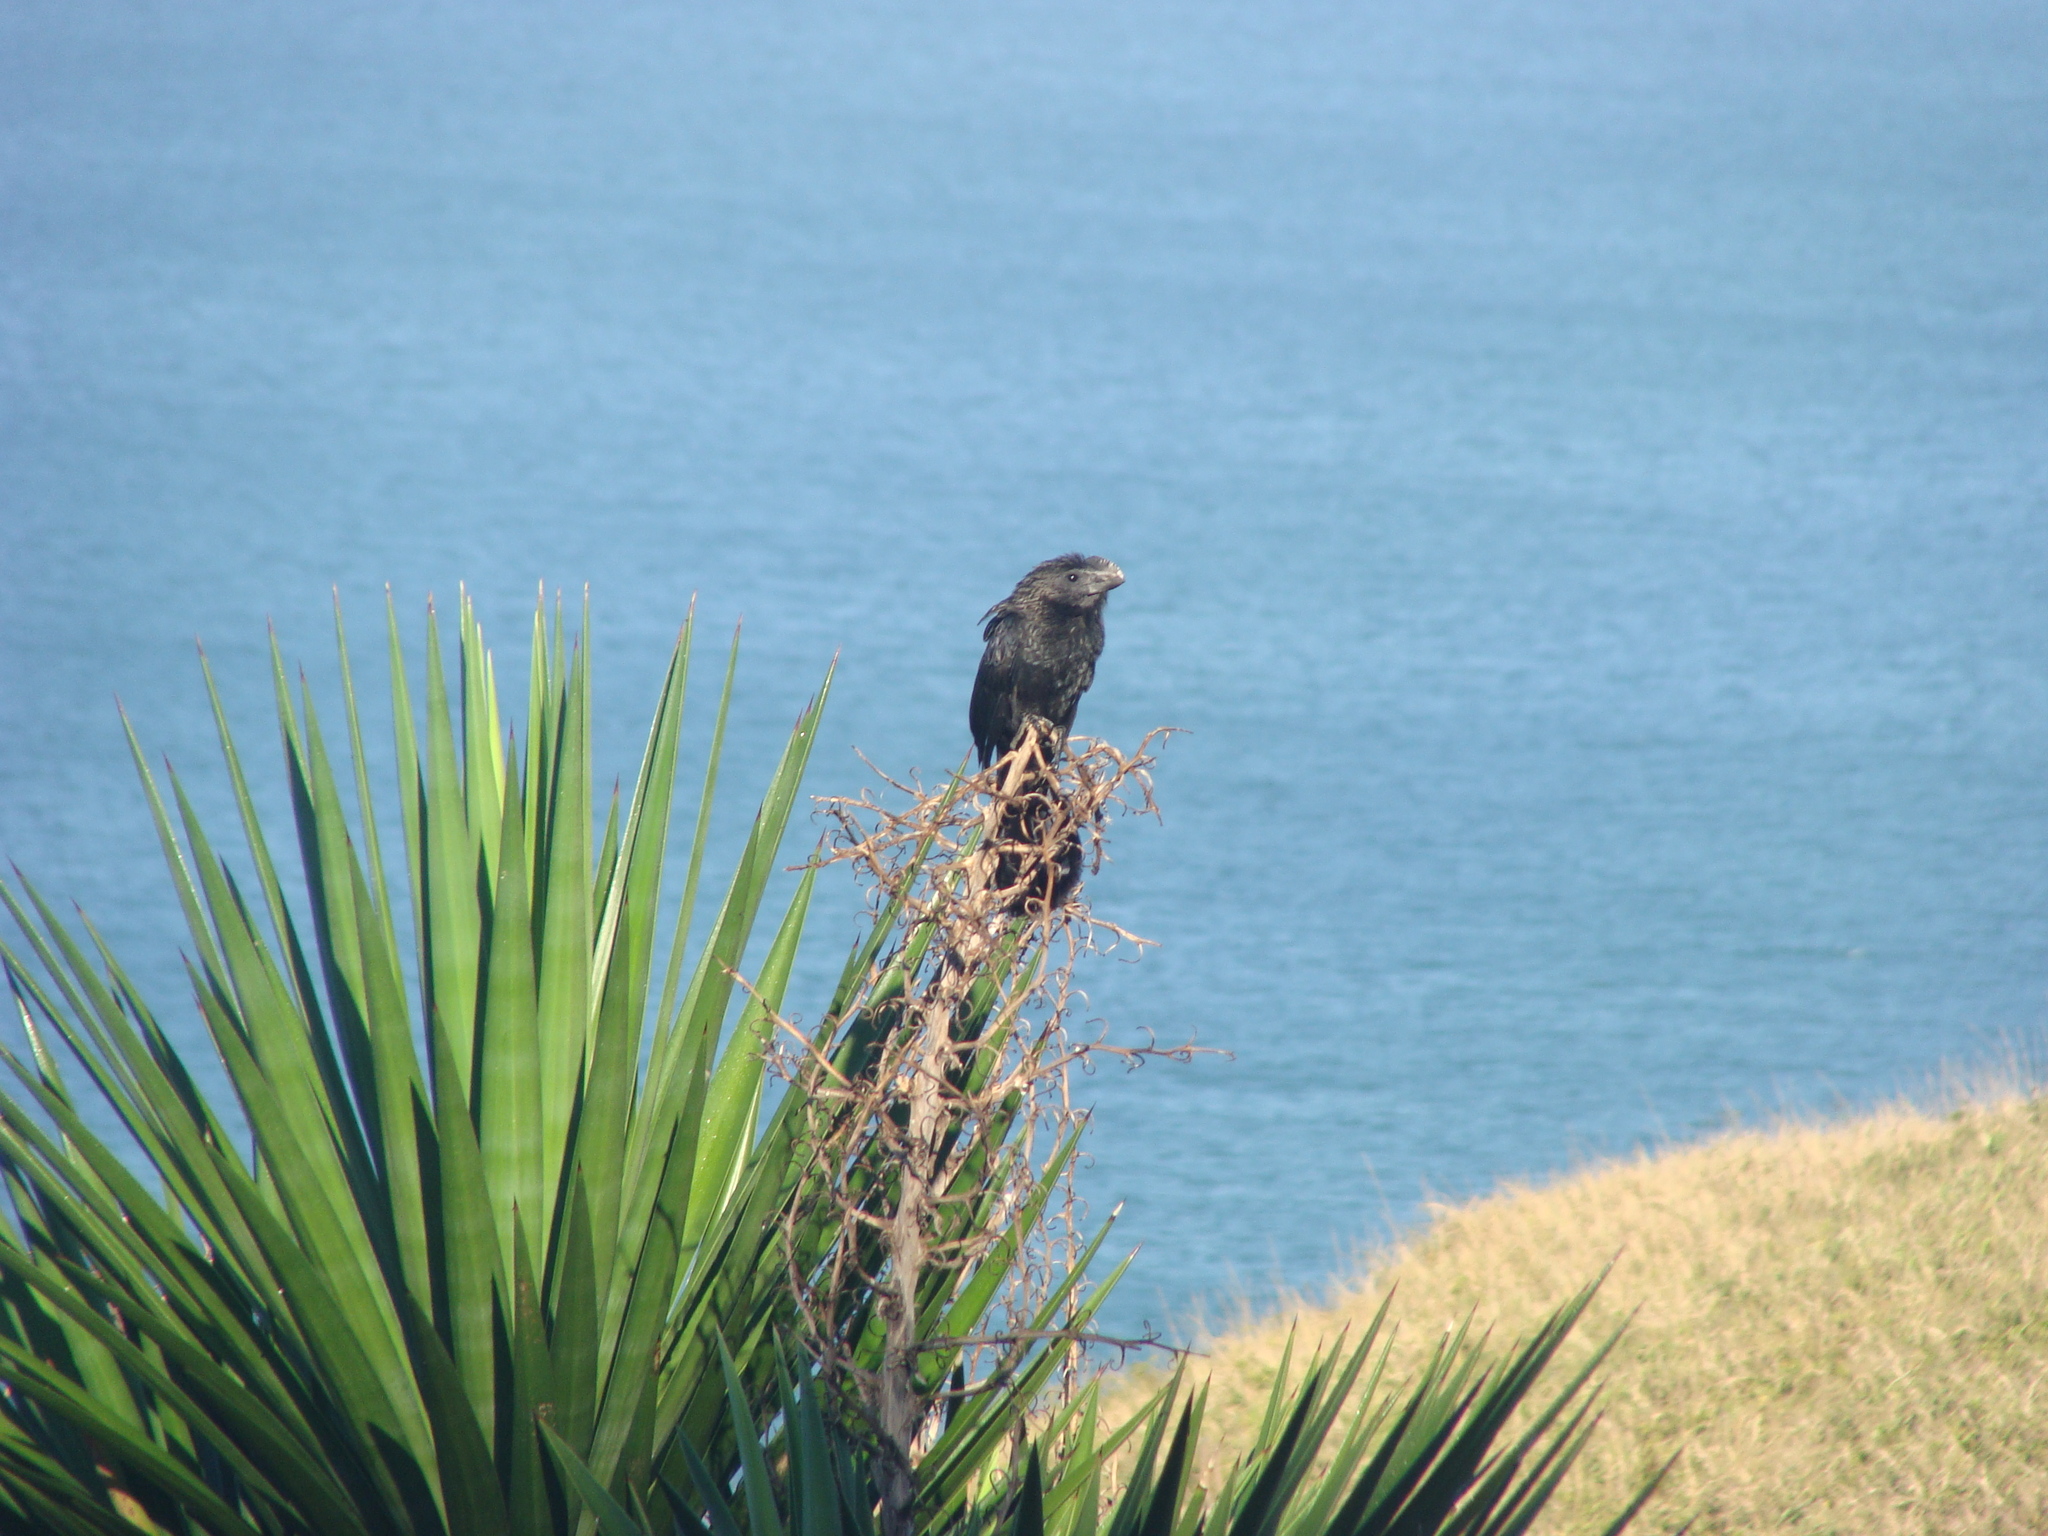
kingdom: Animalia
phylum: Chordata
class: Aves
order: Cuculiformes
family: Cuculidae
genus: Crotophaga
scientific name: Crotophaga ani
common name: Smooth-billed ani
